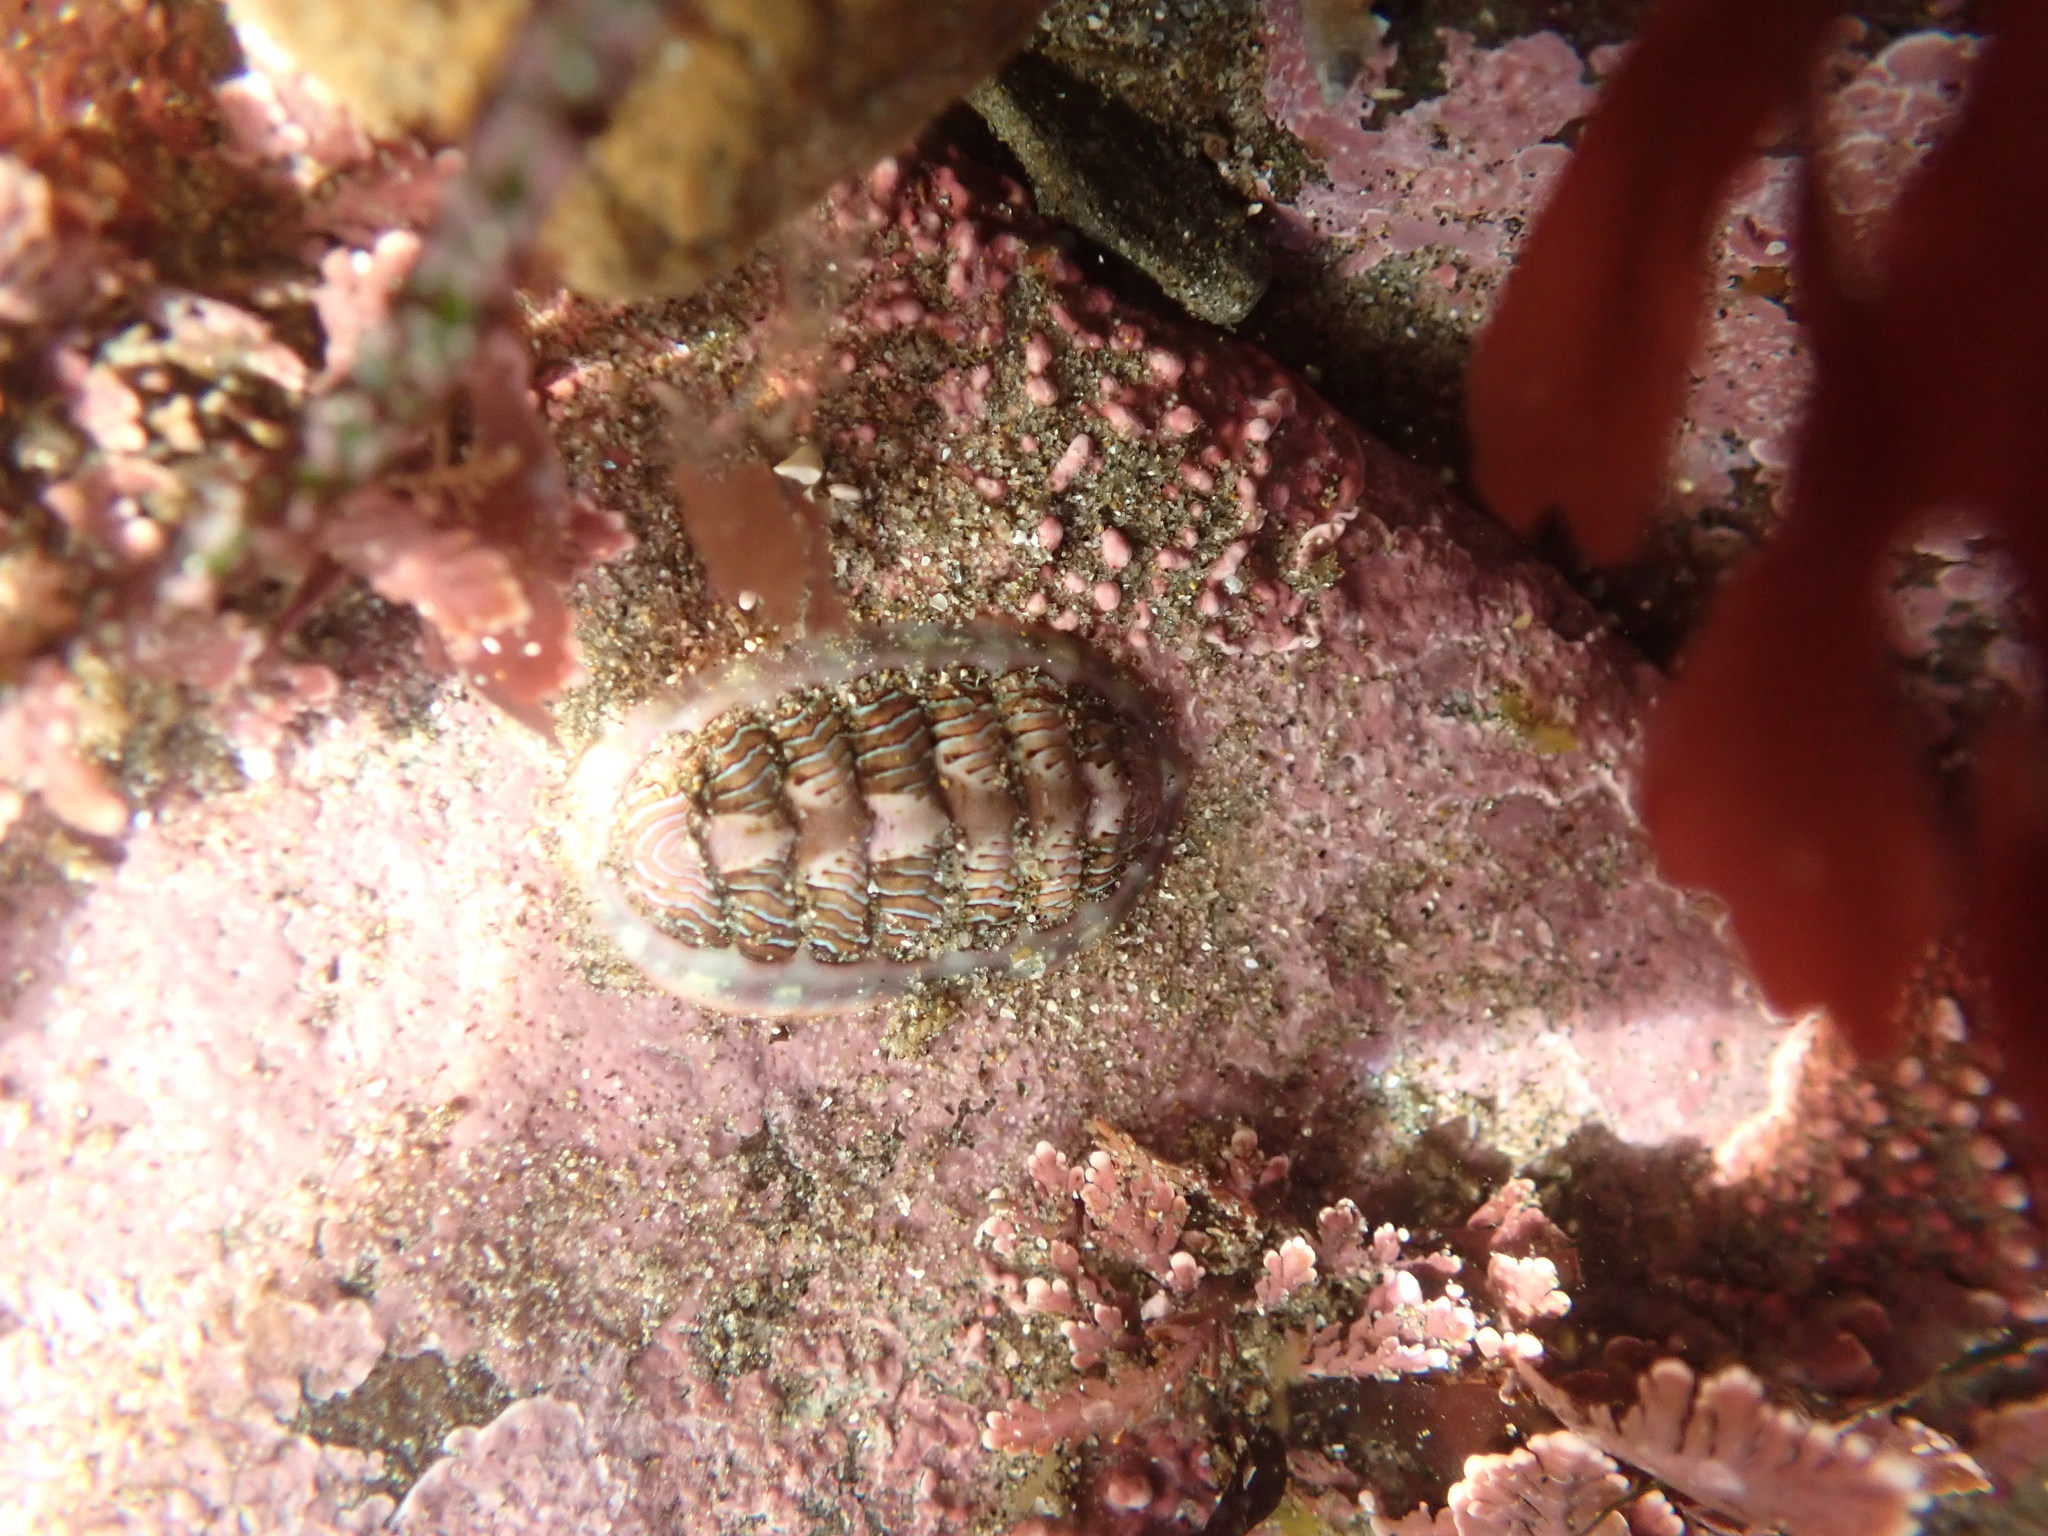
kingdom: Animalia
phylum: Mollusca
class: Polyplacophora
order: Chitonida
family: Tonicellidae
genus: Tonicella
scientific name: Tonicella lineata
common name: Lined chiton
